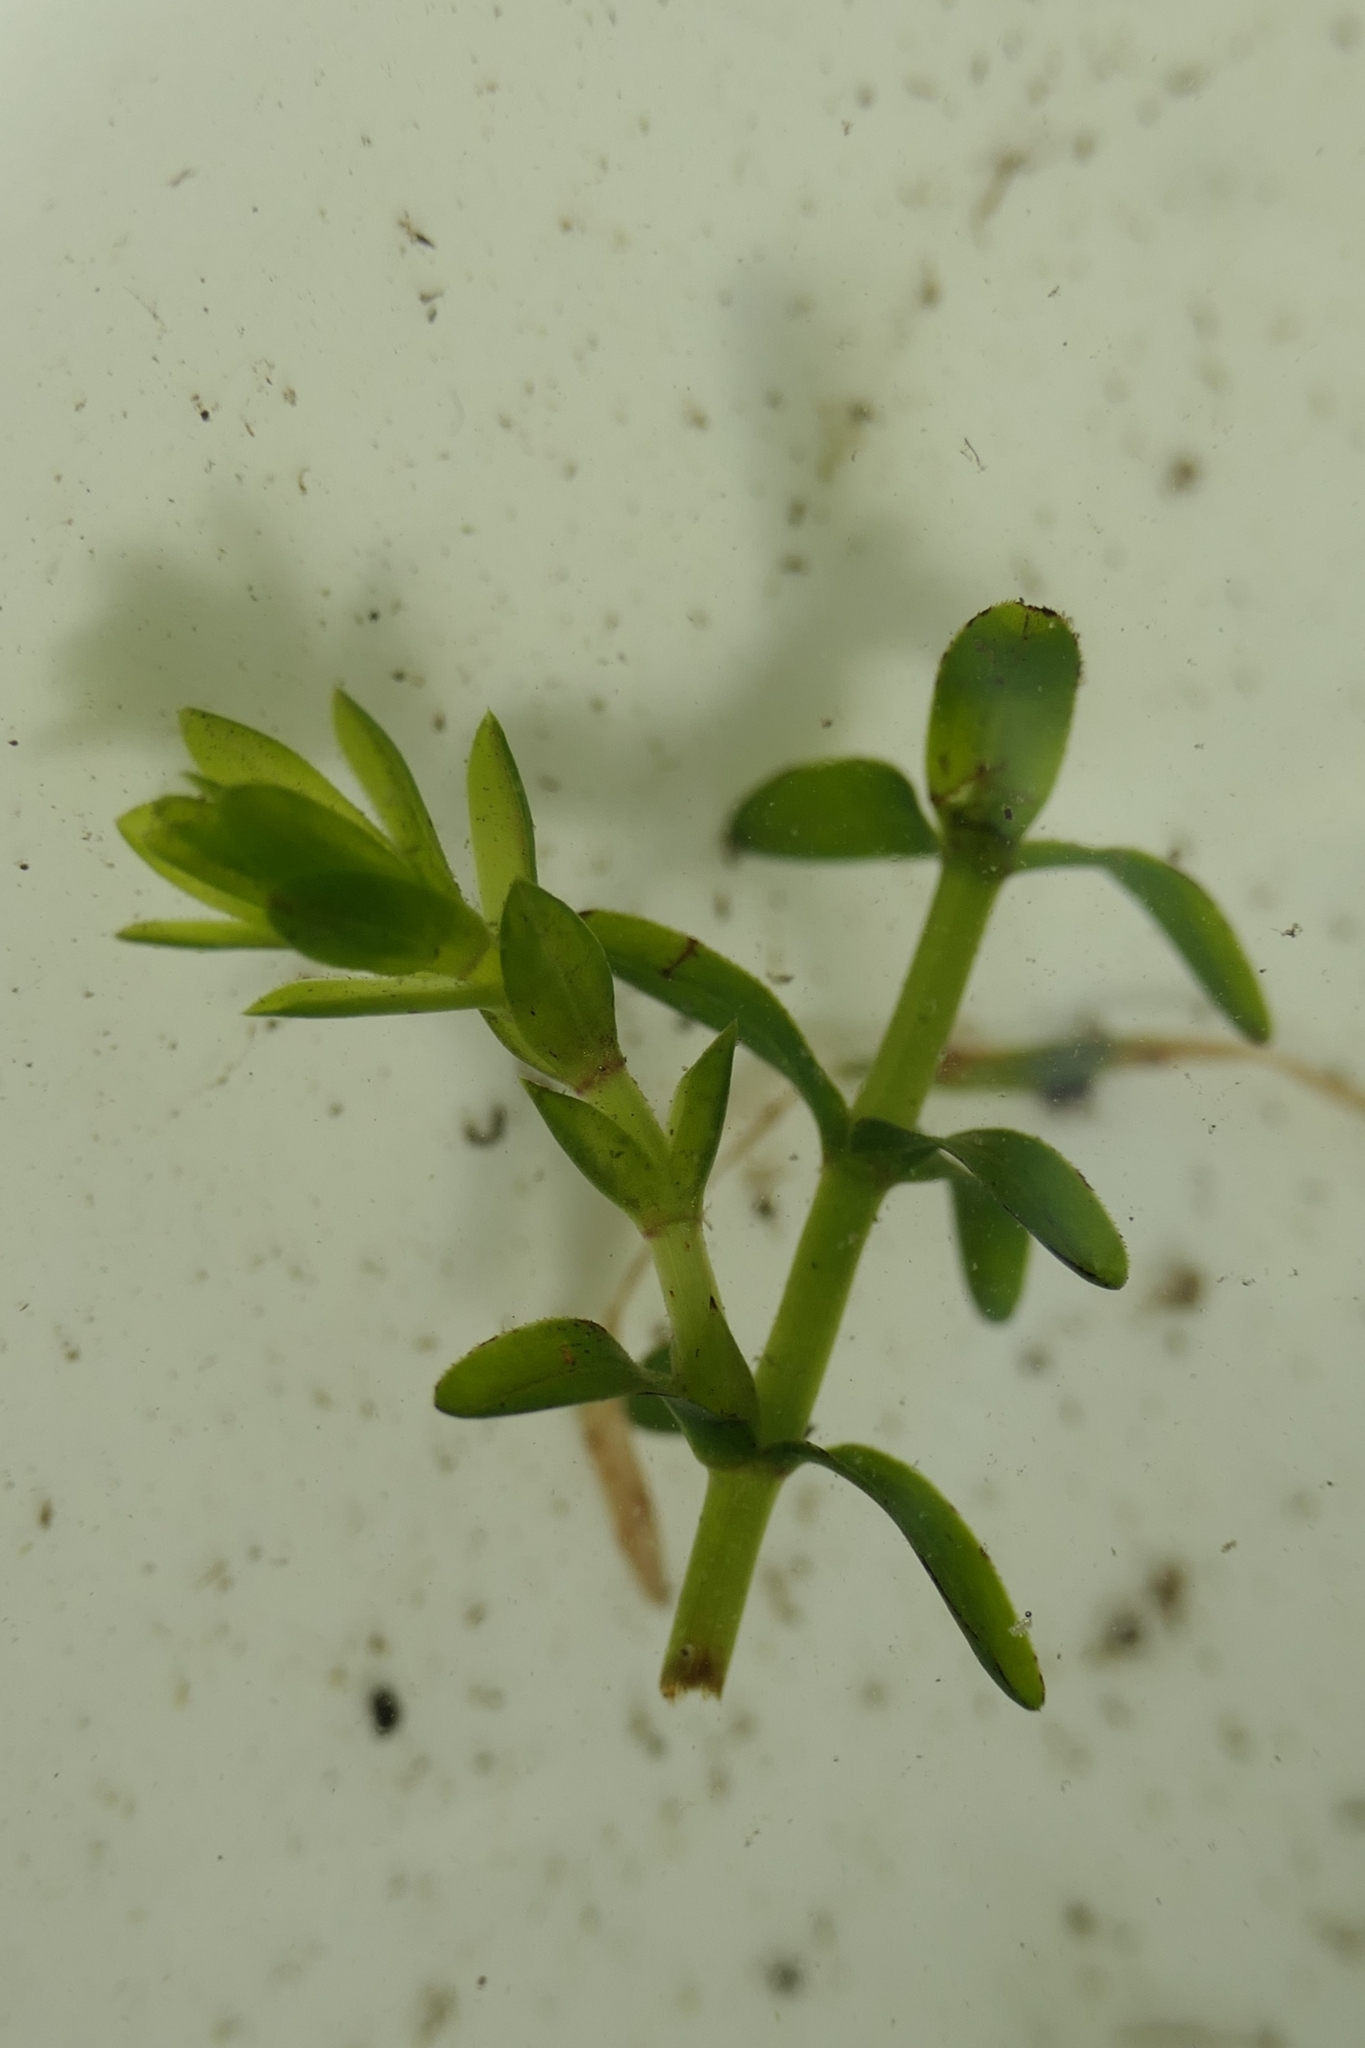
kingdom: Plantae
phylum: Tracheophyta
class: Liliopsida
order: Alismatales
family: Hydrocharitaceae
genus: Elodea
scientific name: Elodea canadensis
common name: Canadian waterweed
